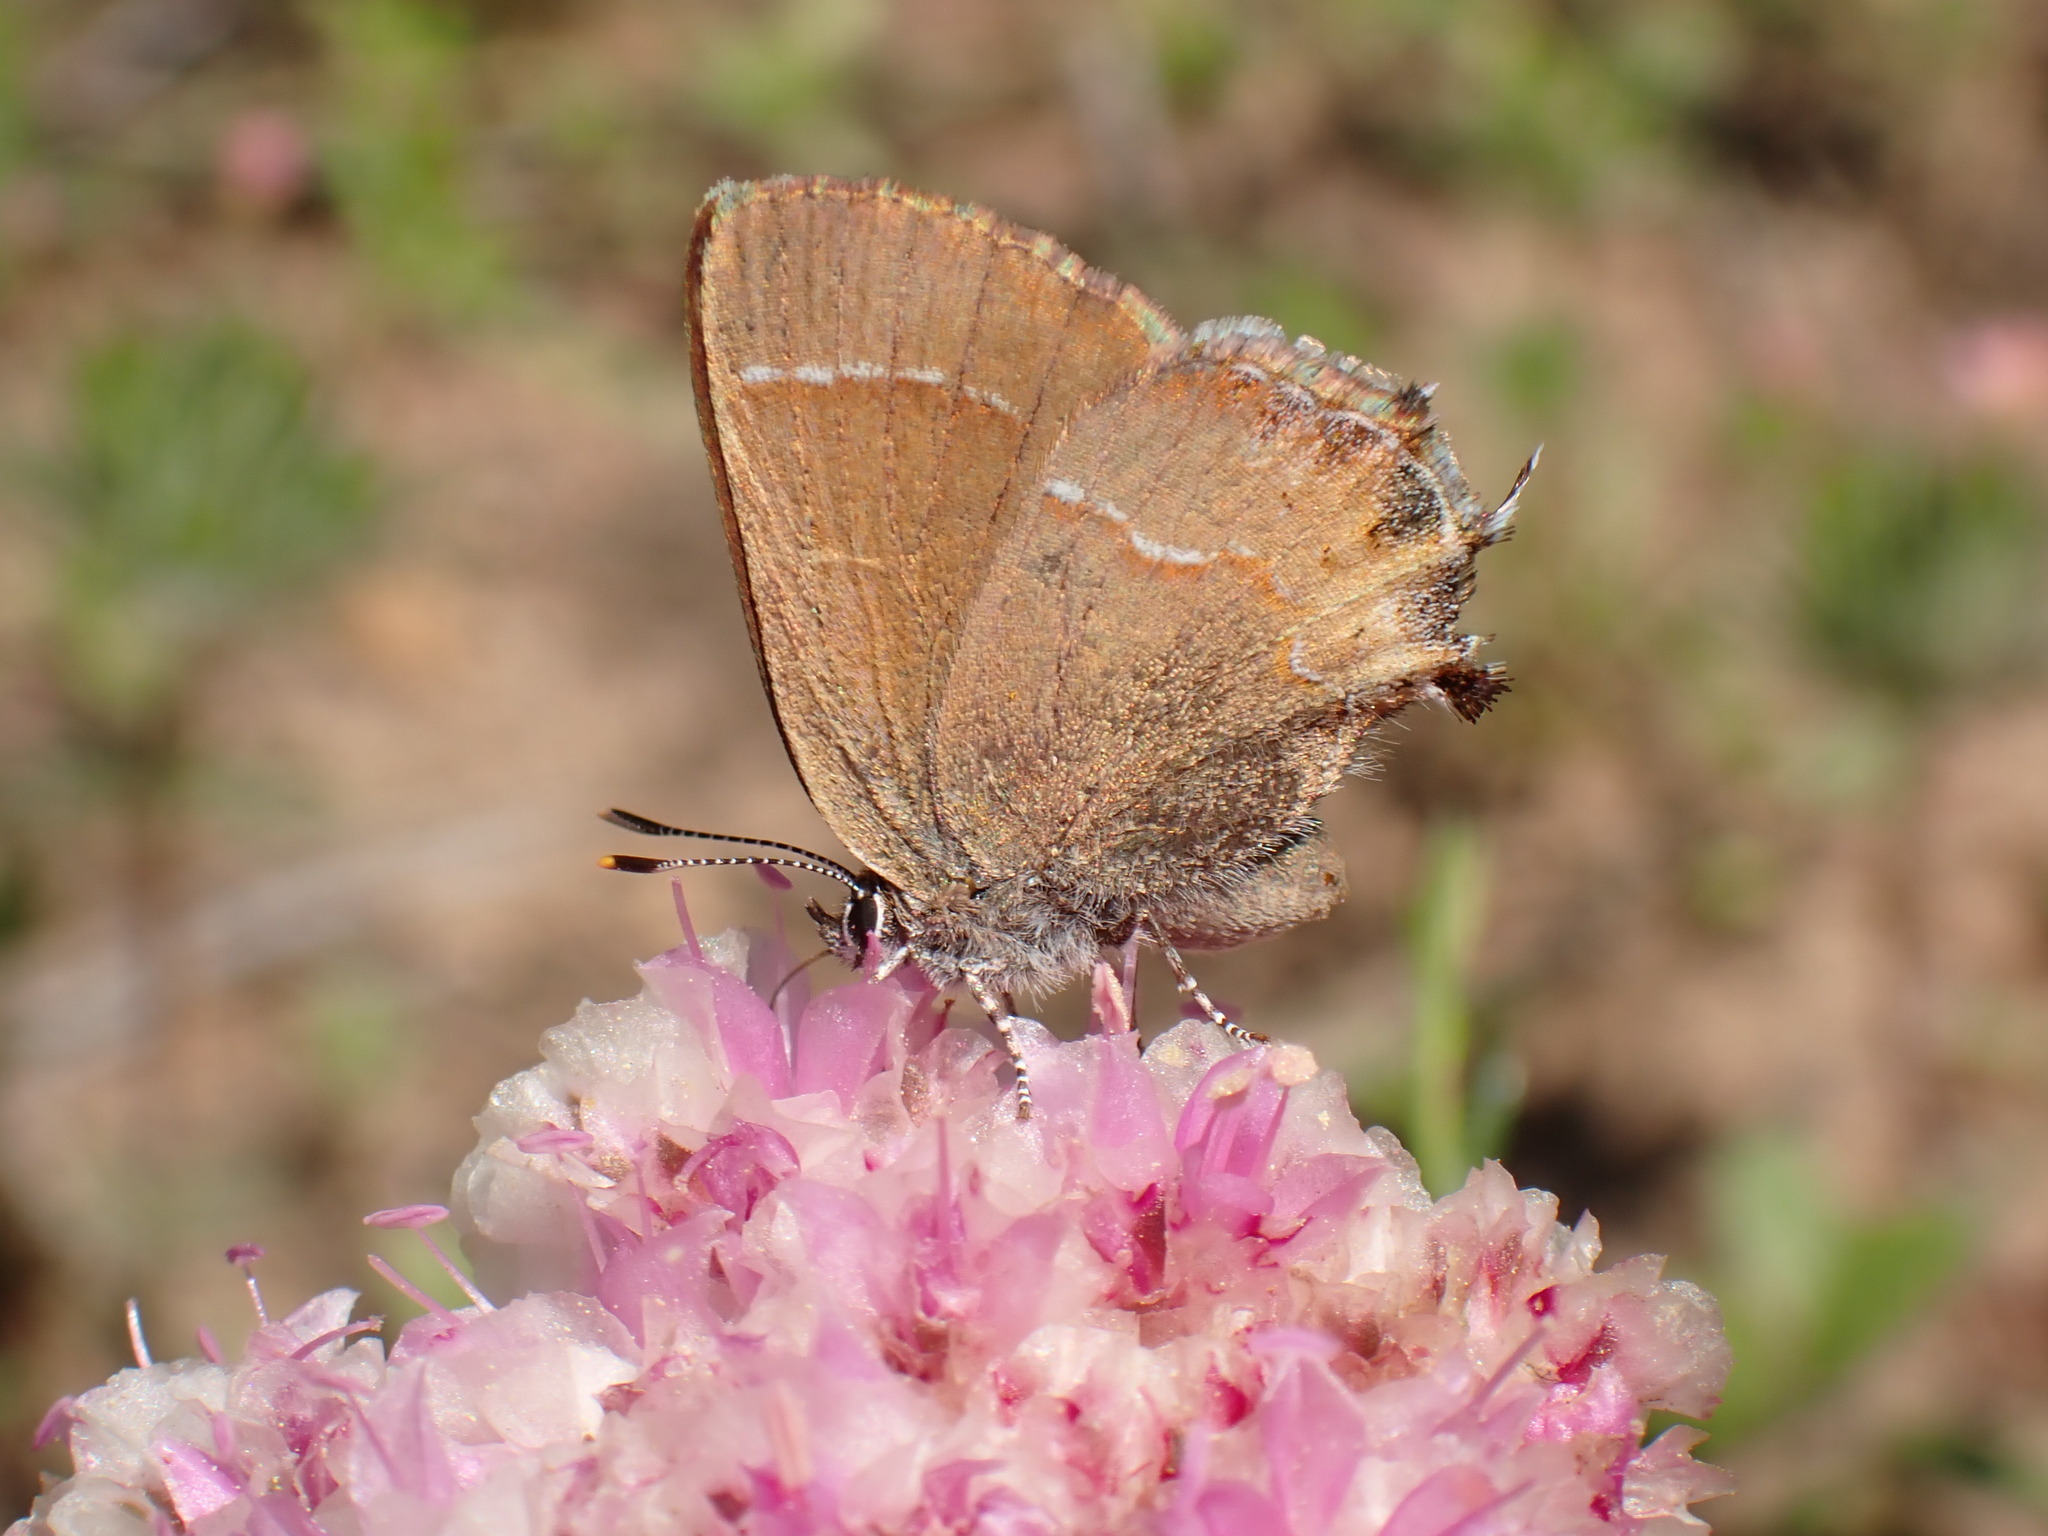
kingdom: Animalia
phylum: Arthropoda
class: Insecta
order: Lepidoptera
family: Lycaenidae
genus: Mitoura
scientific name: Mitoura gryneus
